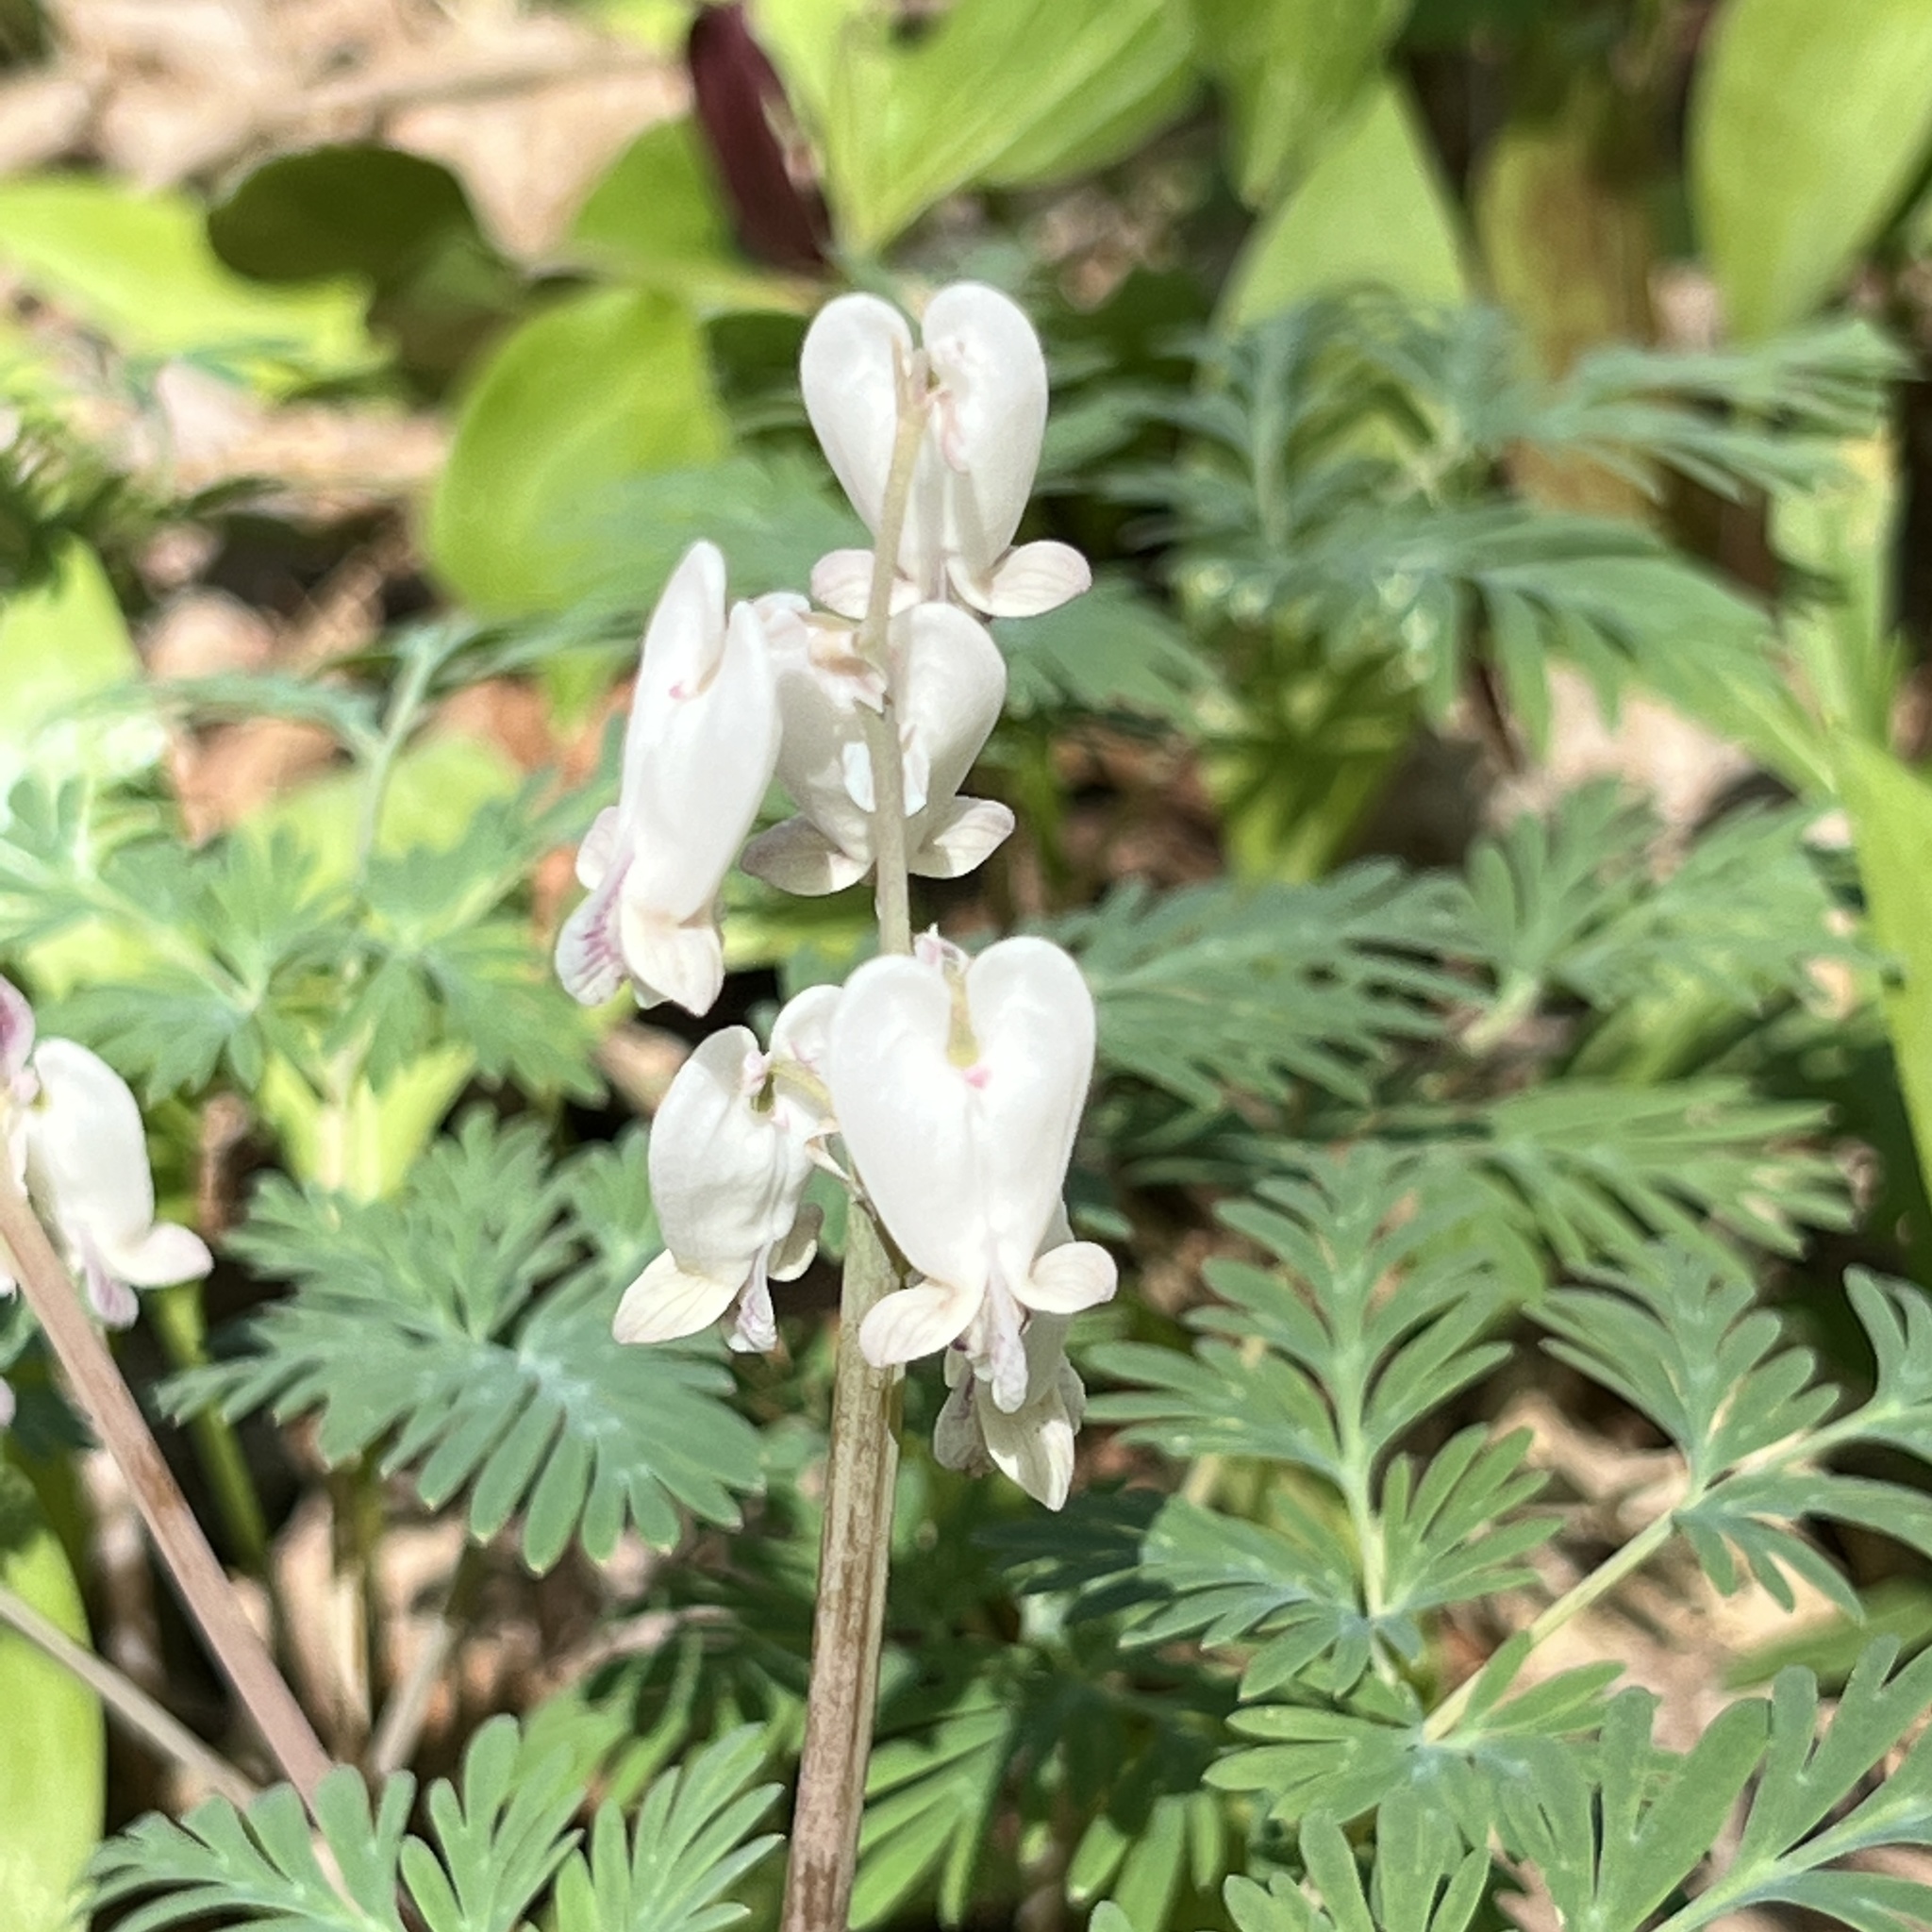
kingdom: Plantae
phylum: Tracheophyta
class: Magnoliopsida
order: Ranunculales
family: Papaveraceae
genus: Dicentra
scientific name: Dicentra canadensis
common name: Squirrel-corn
